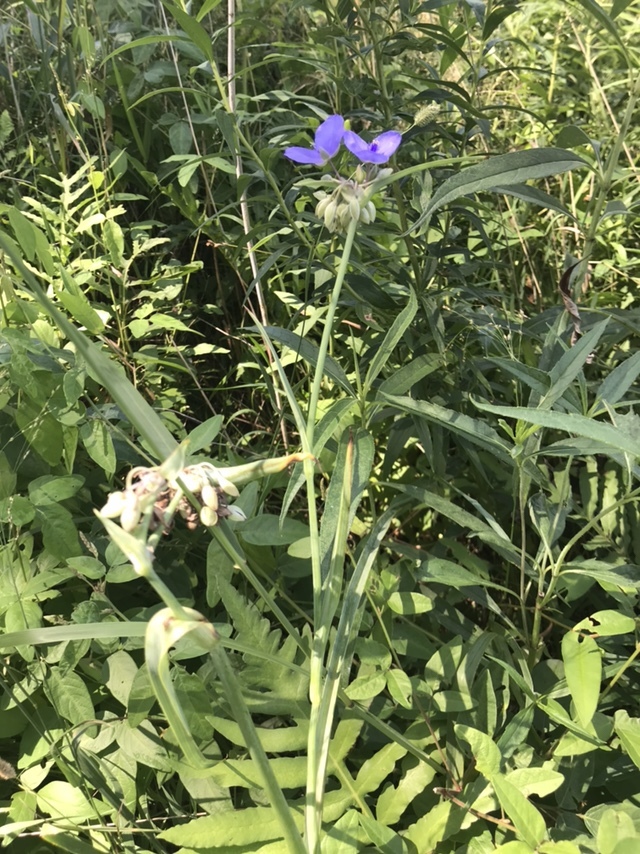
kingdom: Plantae
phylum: Tracheophyta
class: Liliopsida
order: Commelinales
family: Commelinaceae
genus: Tradescantia
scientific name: Tradescantia ohiensis
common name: Ohio spiderwort
